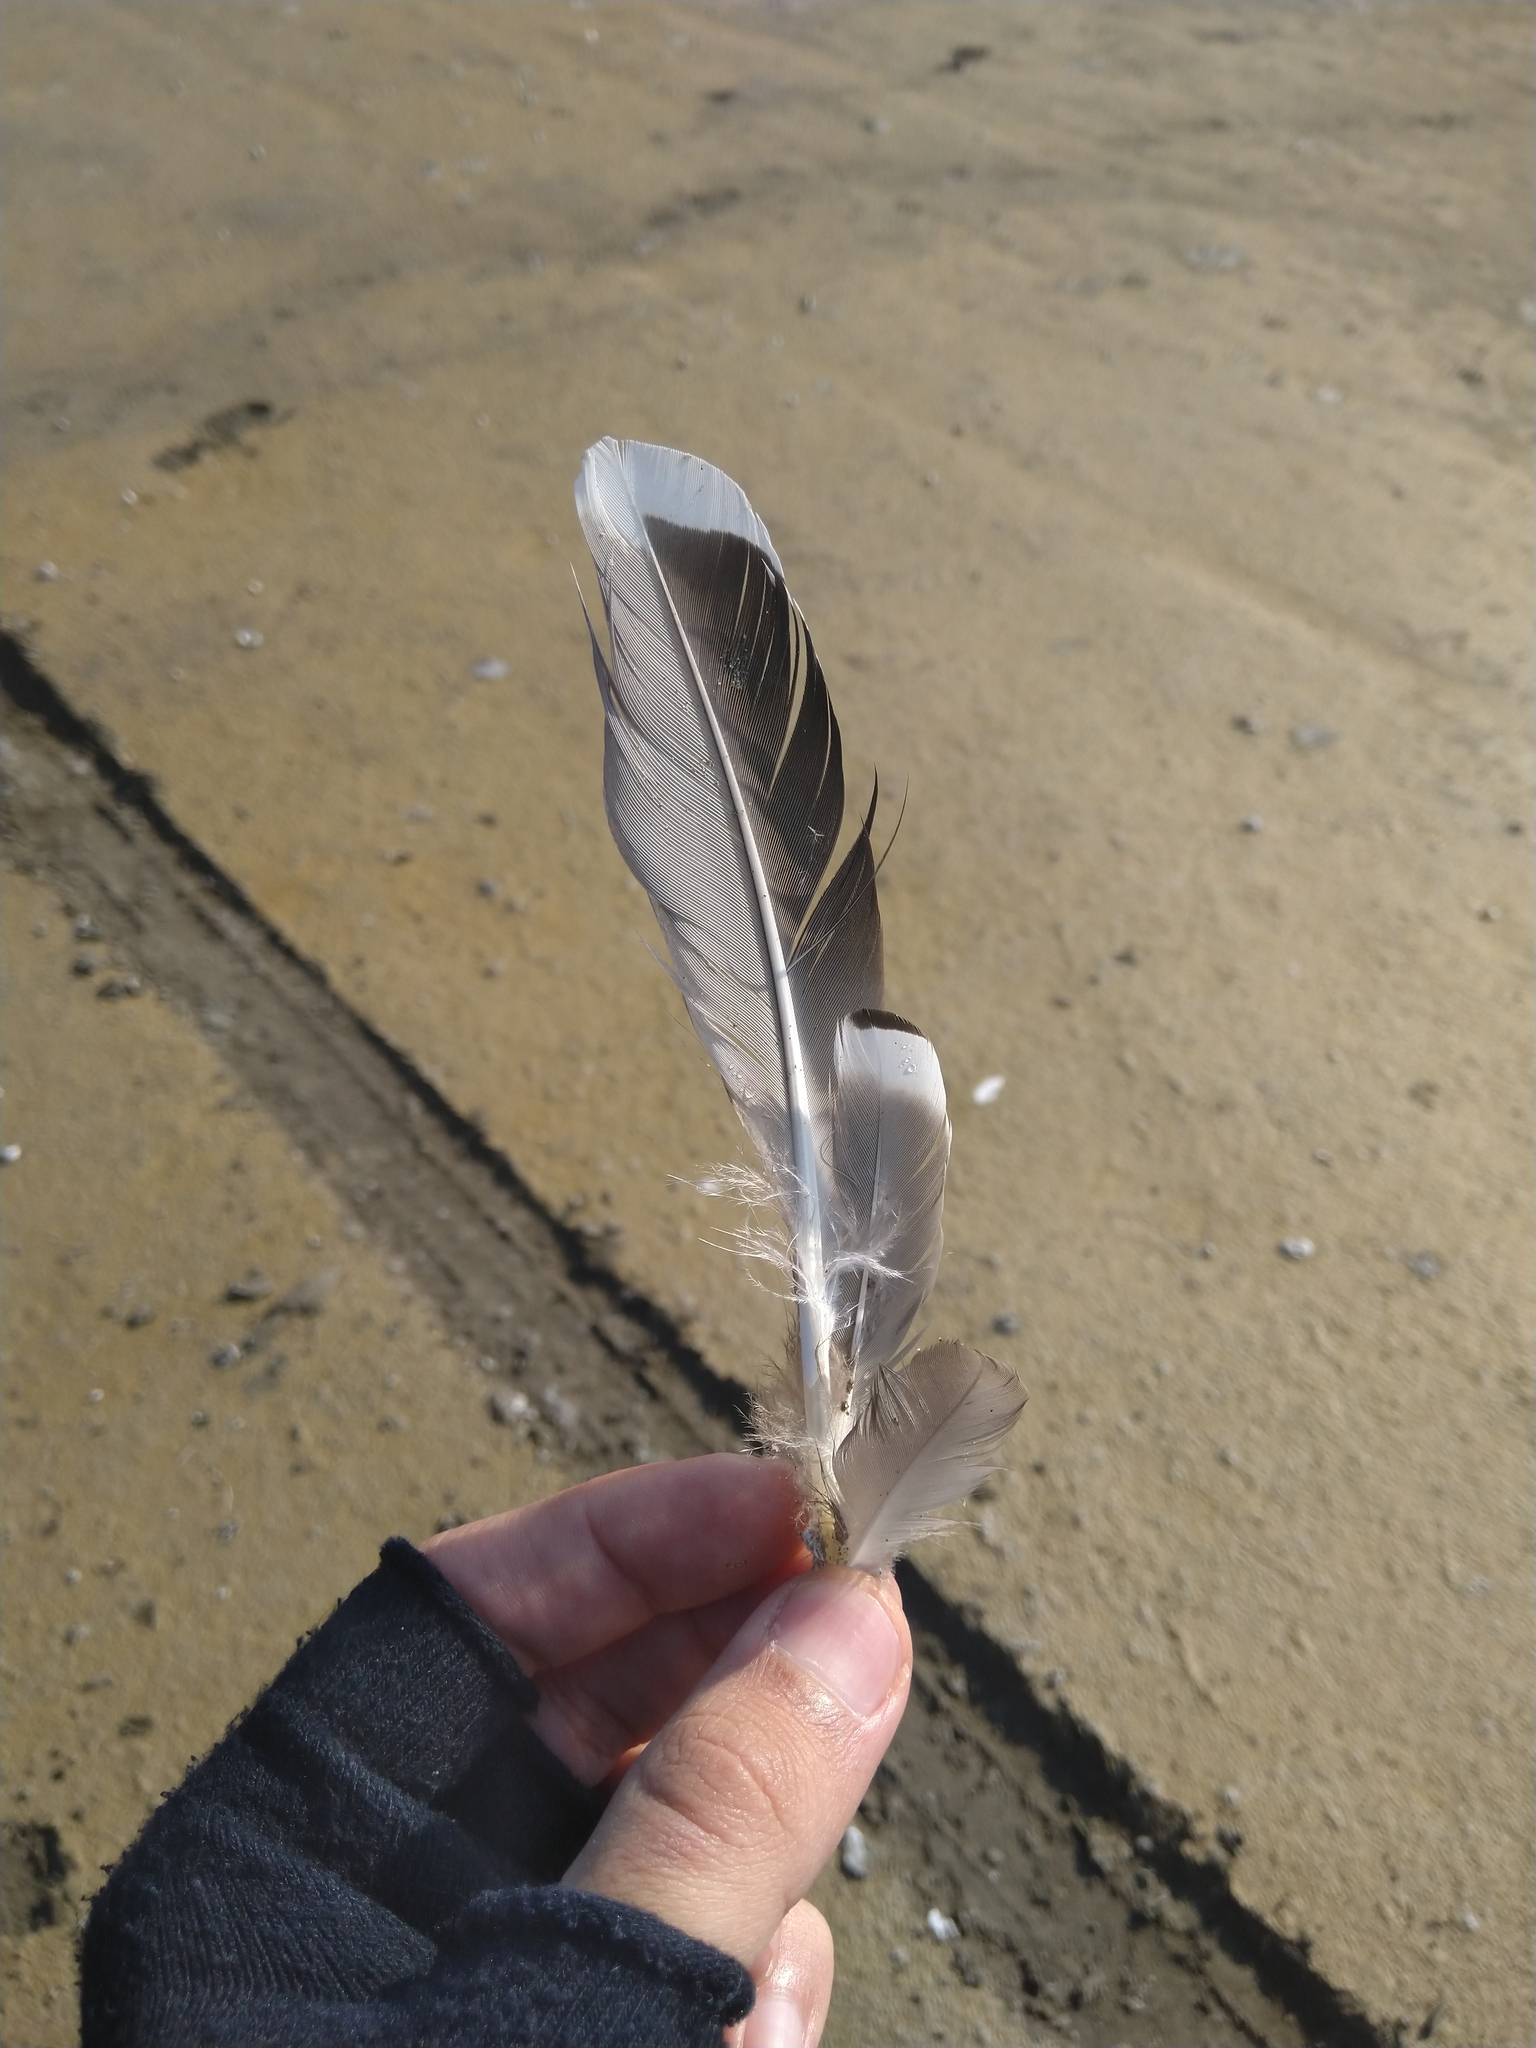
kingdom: Animalia
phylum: Chordata
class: Aves
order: Anseriformes
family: Anatidae
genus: Anas
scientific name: Anas platyrhynchos
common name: Mallard
